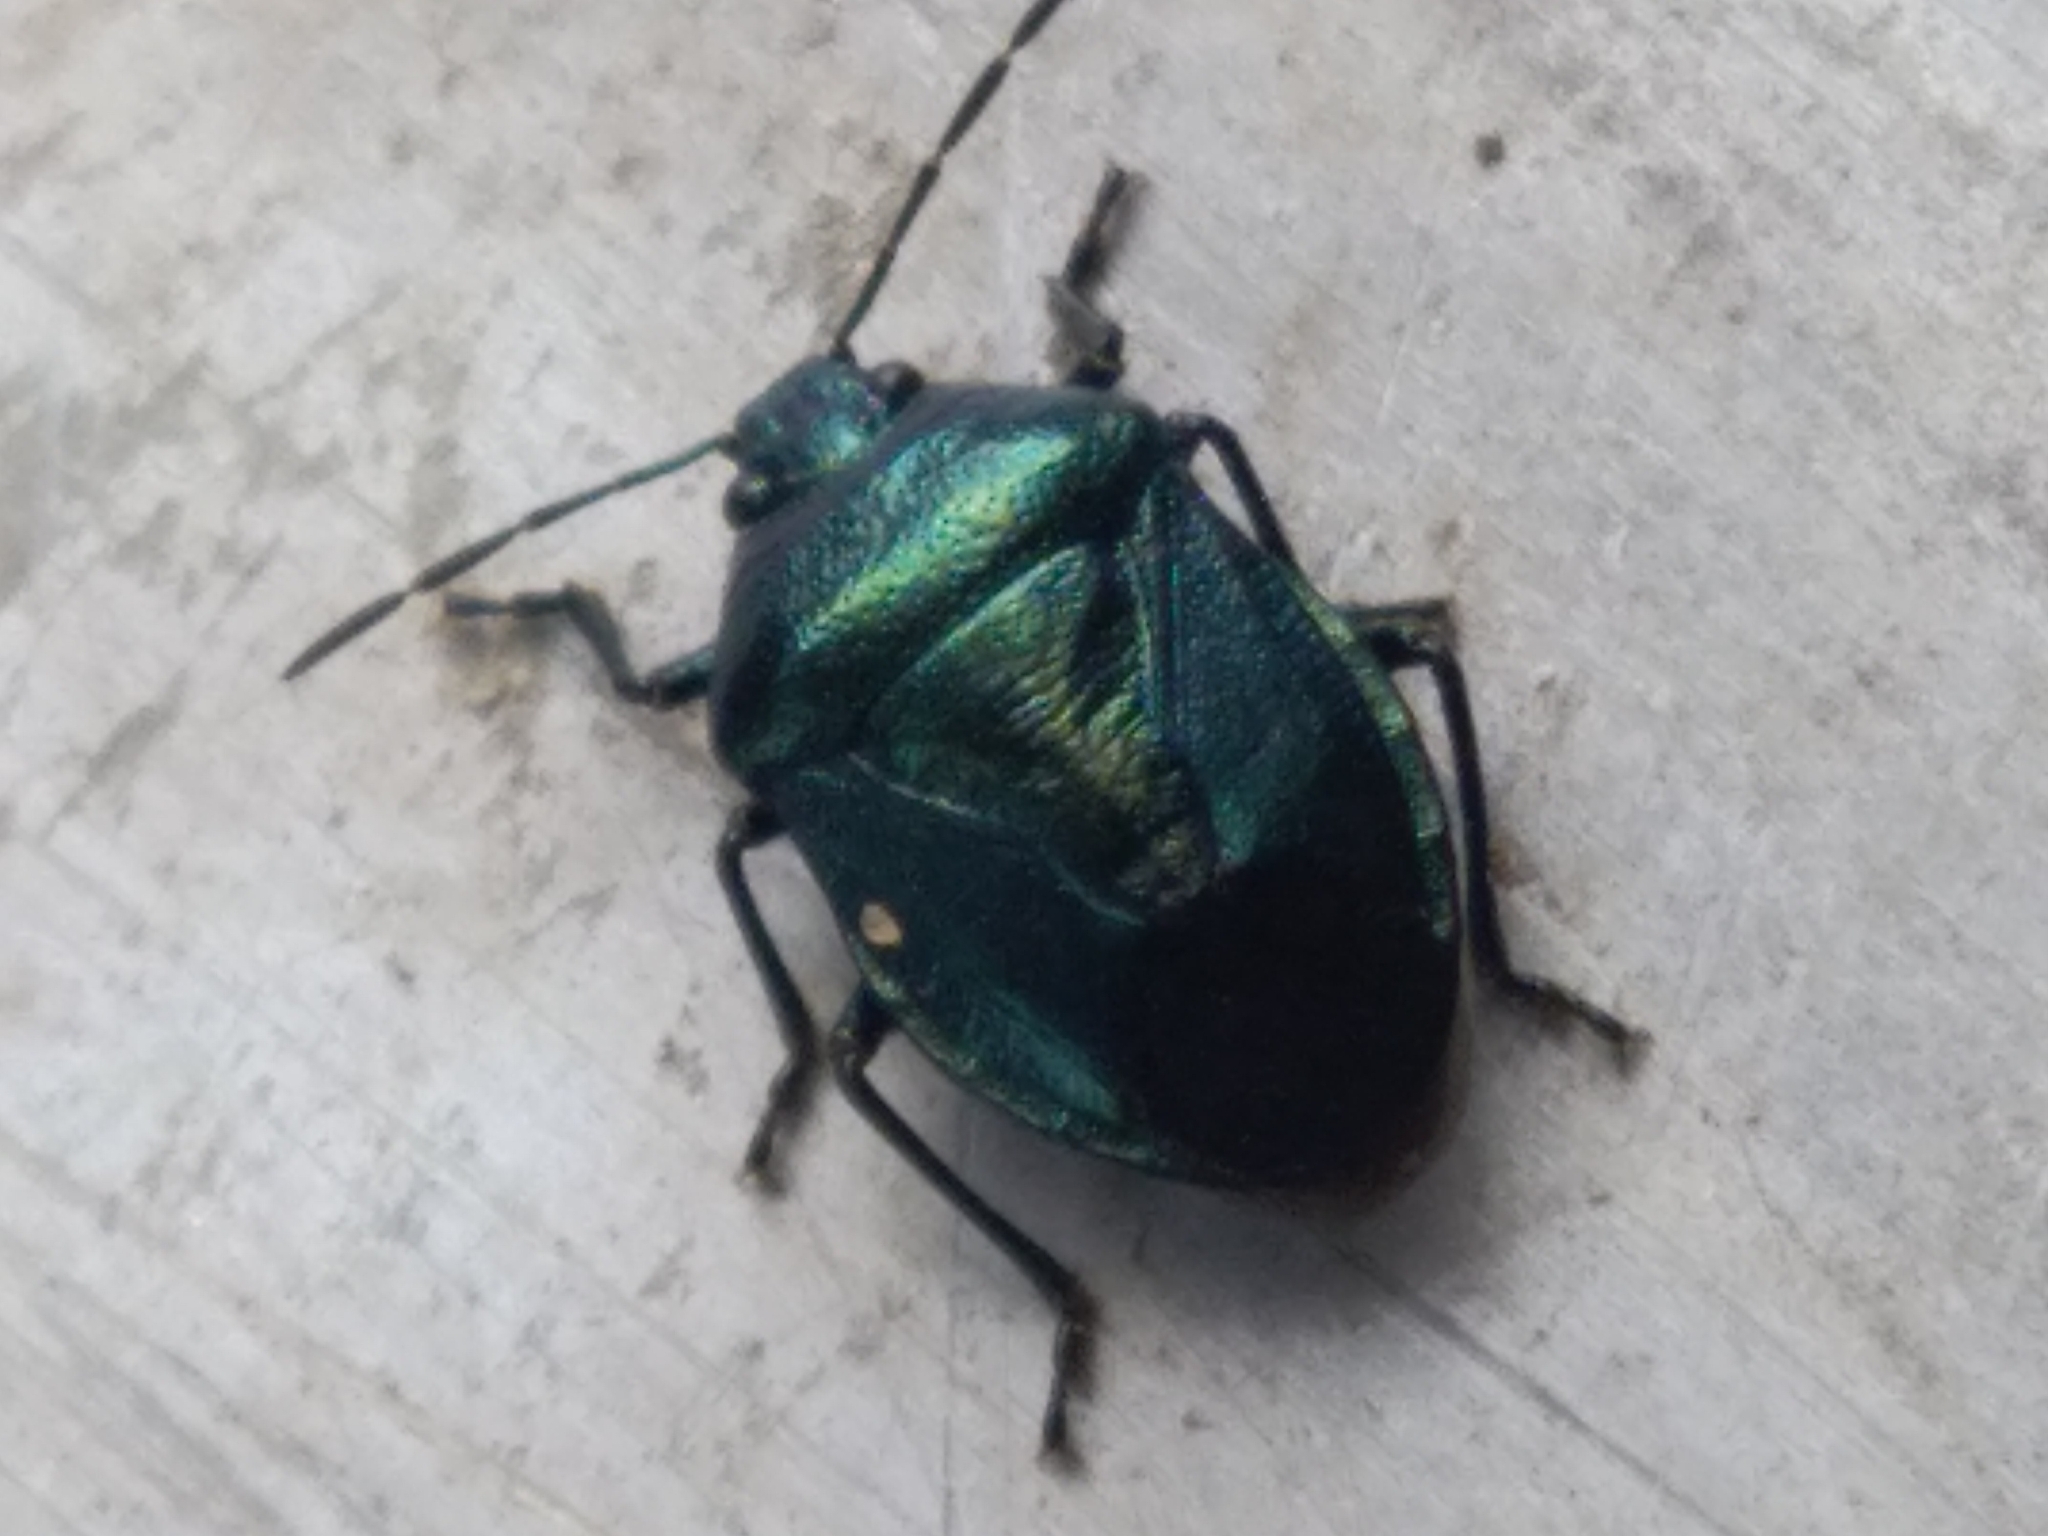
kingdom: Animalia
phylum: Arthropoda
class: Insecta
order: Hemiptera
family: Pentatomidae
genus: Zicrona
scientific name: Zicrona caerulea
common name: Blue shieldbug
